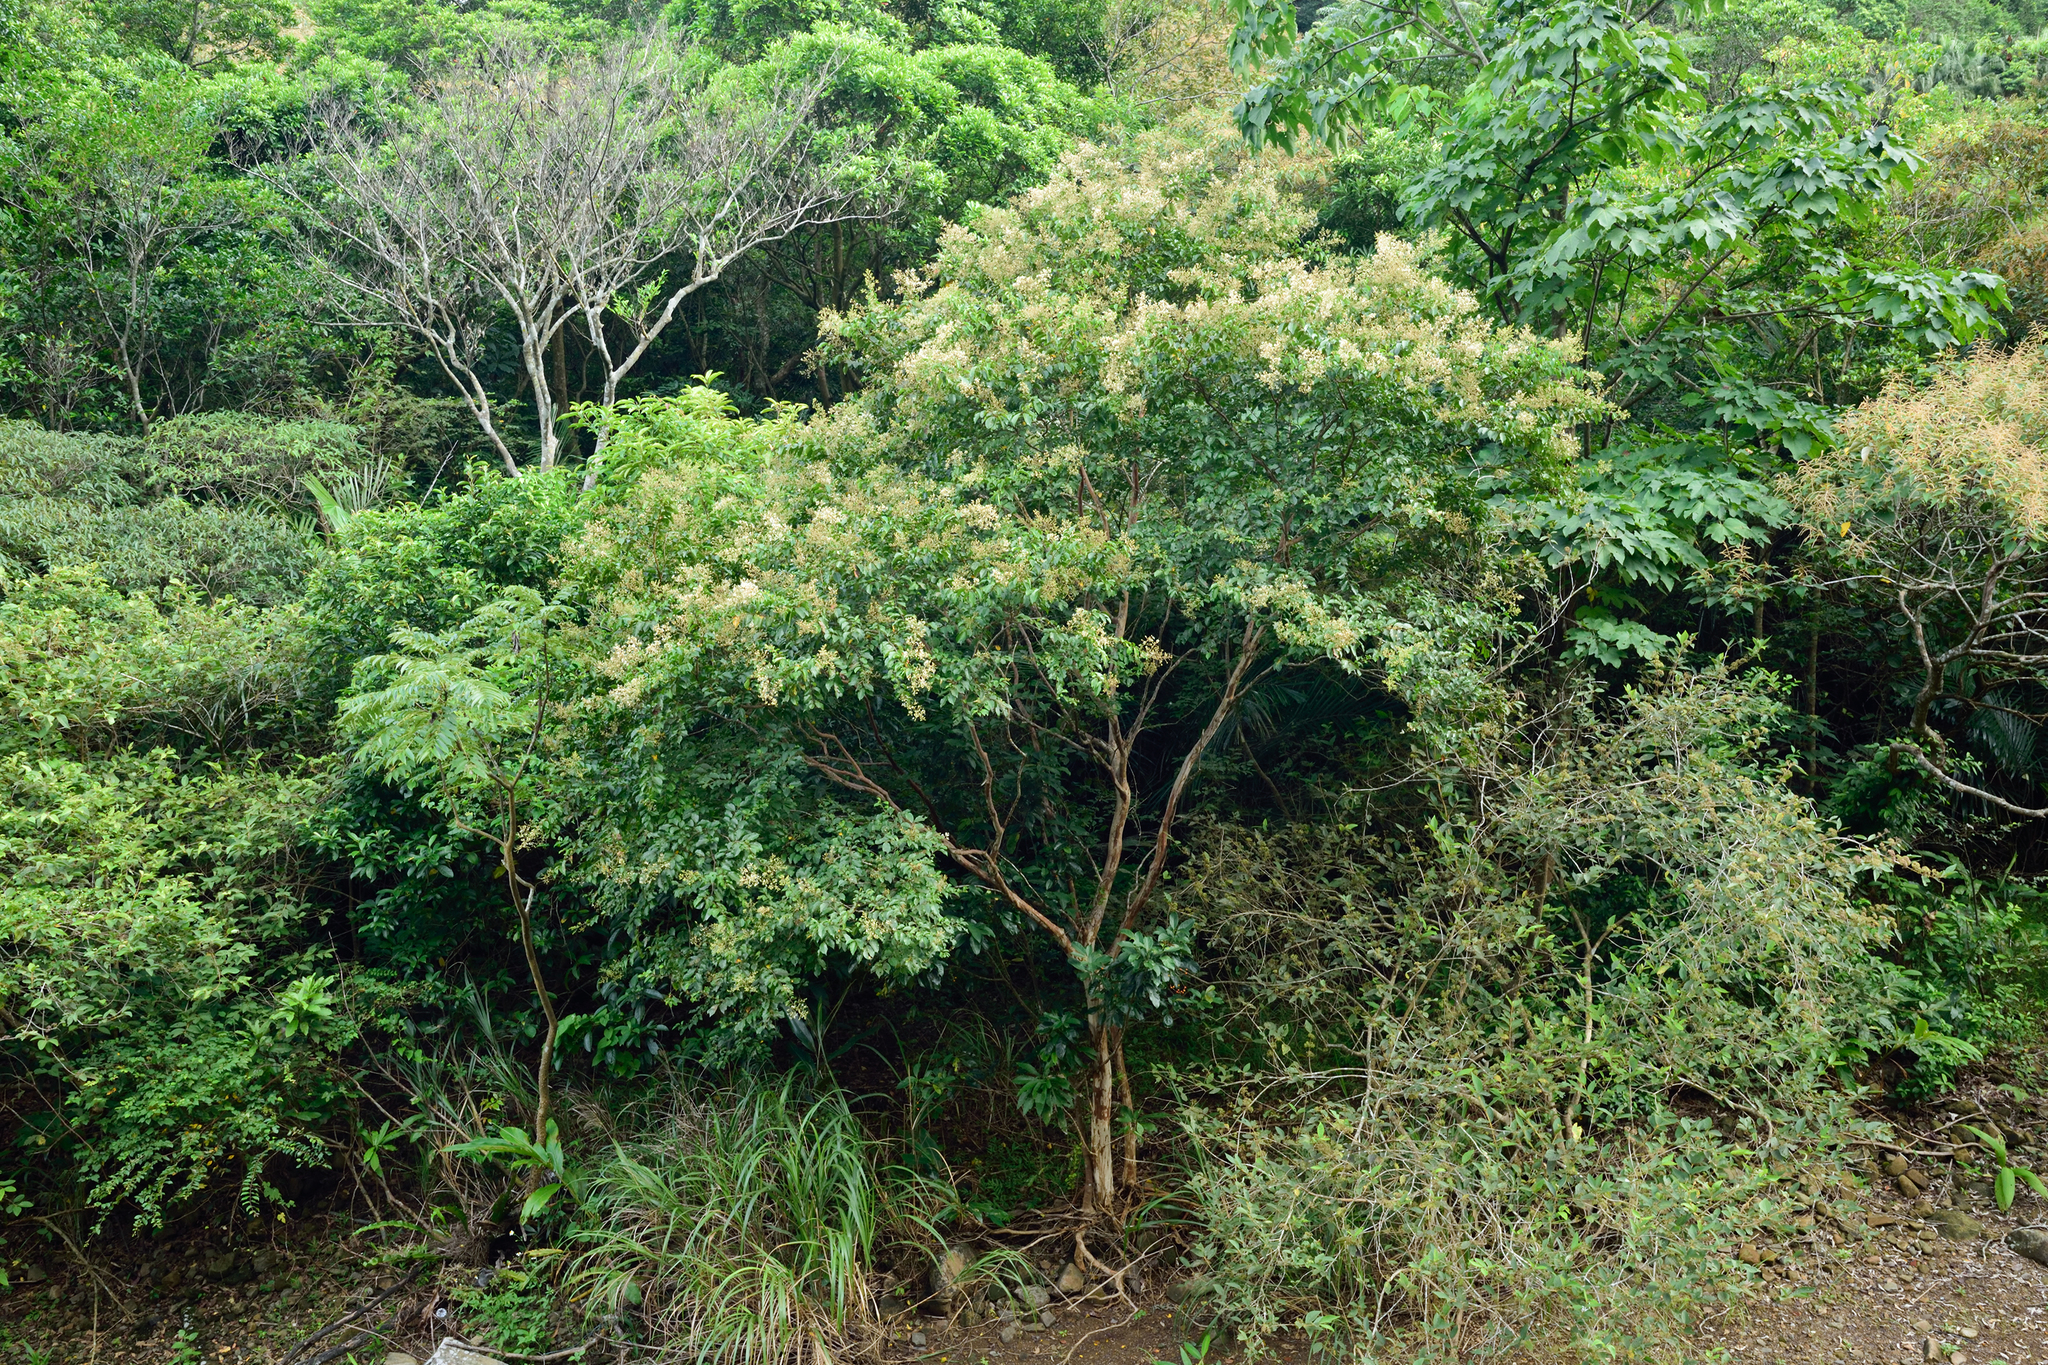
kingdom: Plantae
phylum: Tracheophyta
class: Magnoliopsida
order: Myrtales
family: Lythraceae
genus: Lagerstroemia
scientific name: Lagerstroemia subcostata
